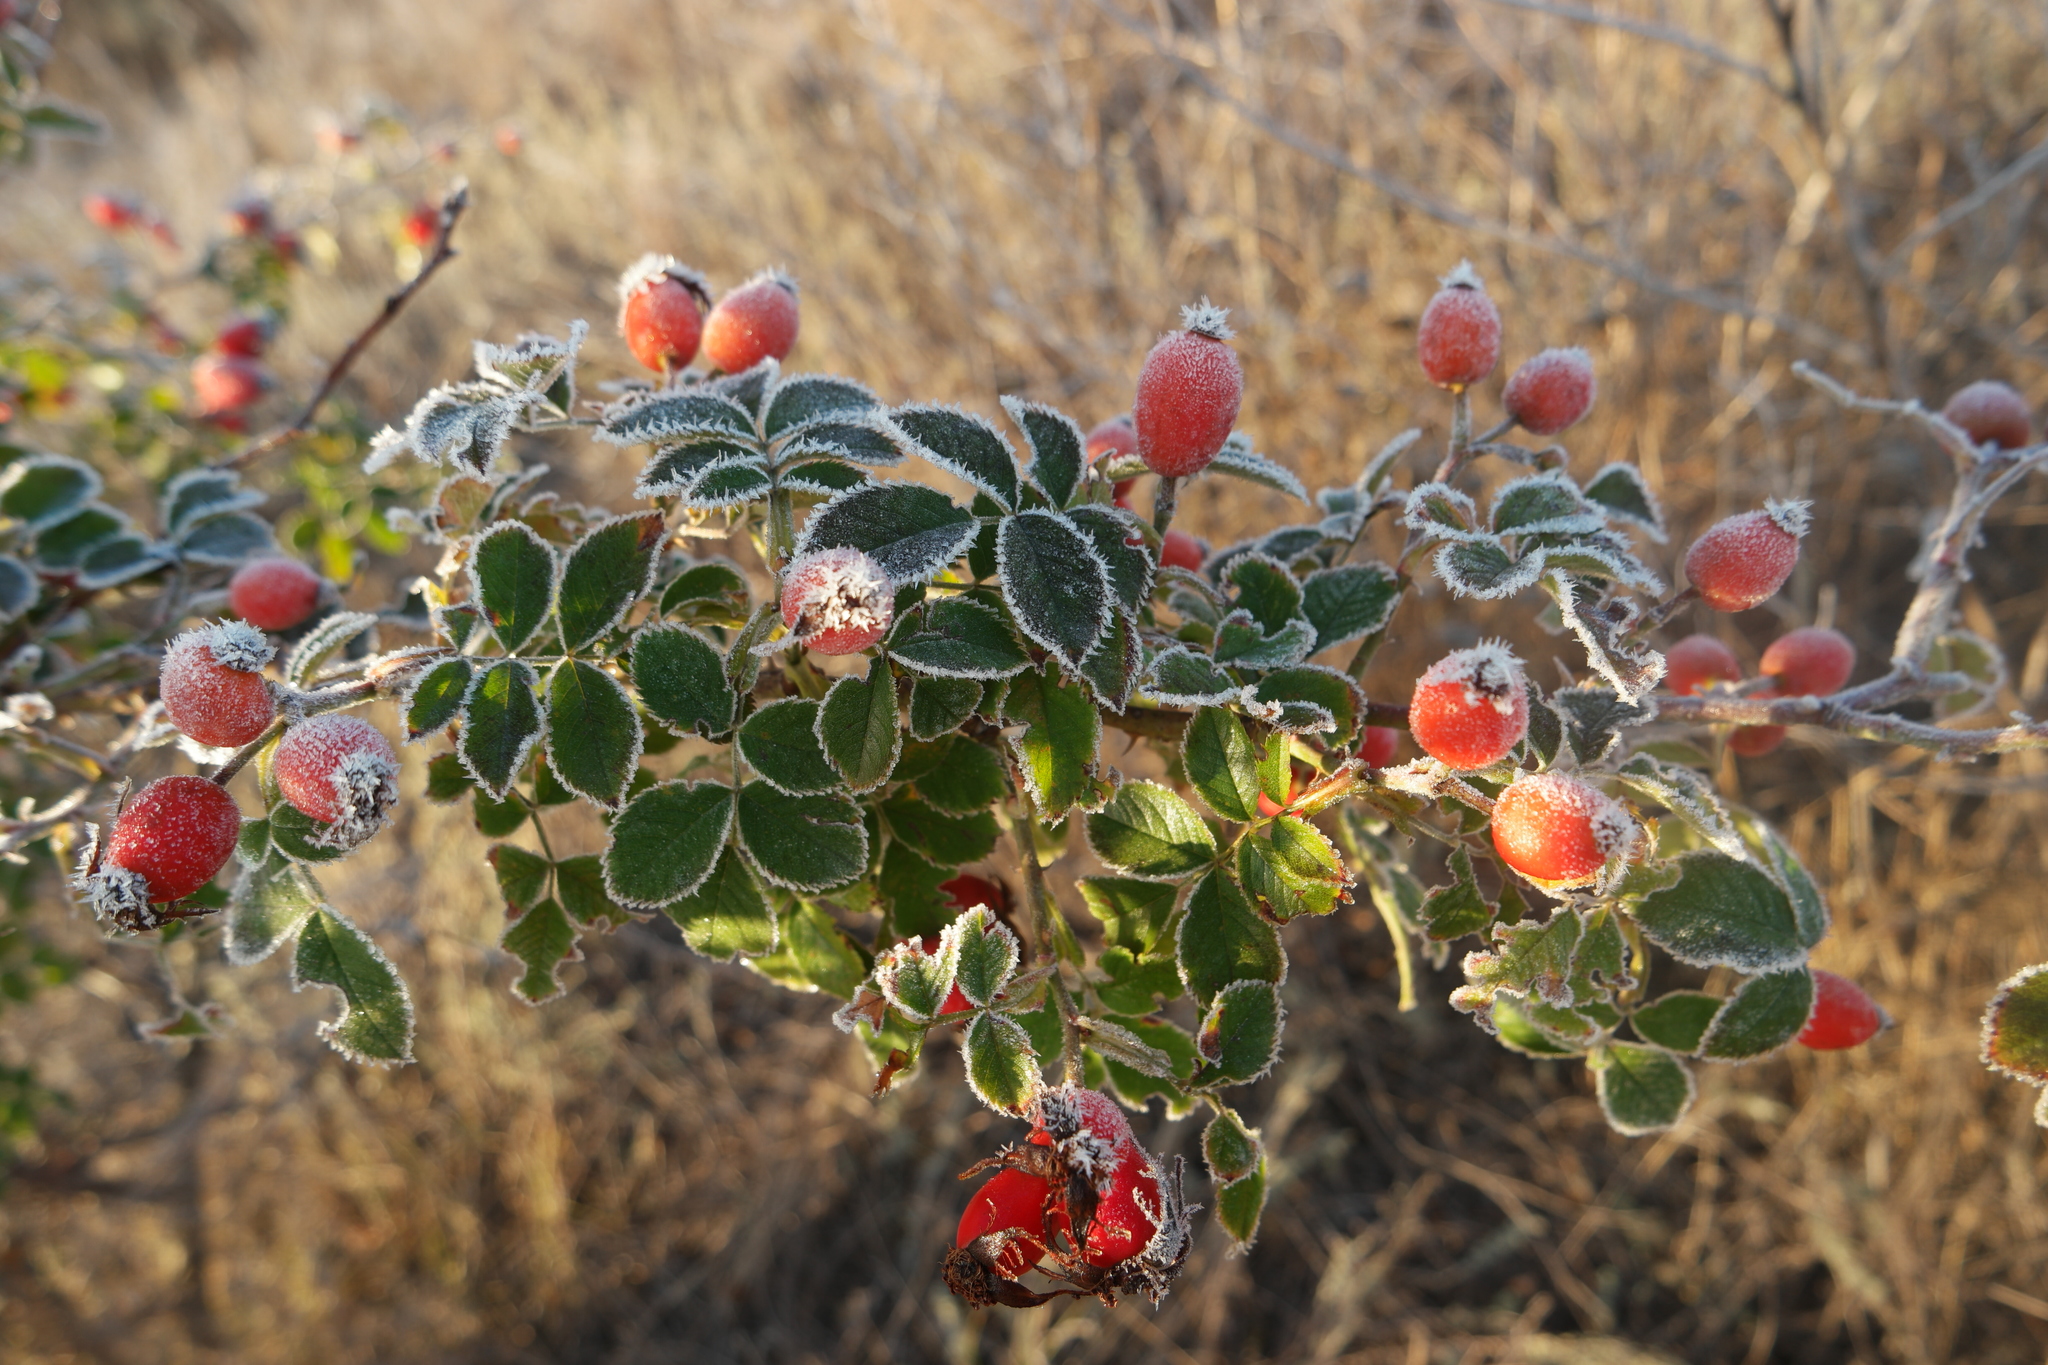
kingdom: Plantae
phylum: Tracheophyta
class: Magnoliopsida
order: Rosales
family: Rosaceae
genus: Rosa
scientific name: Rosa
